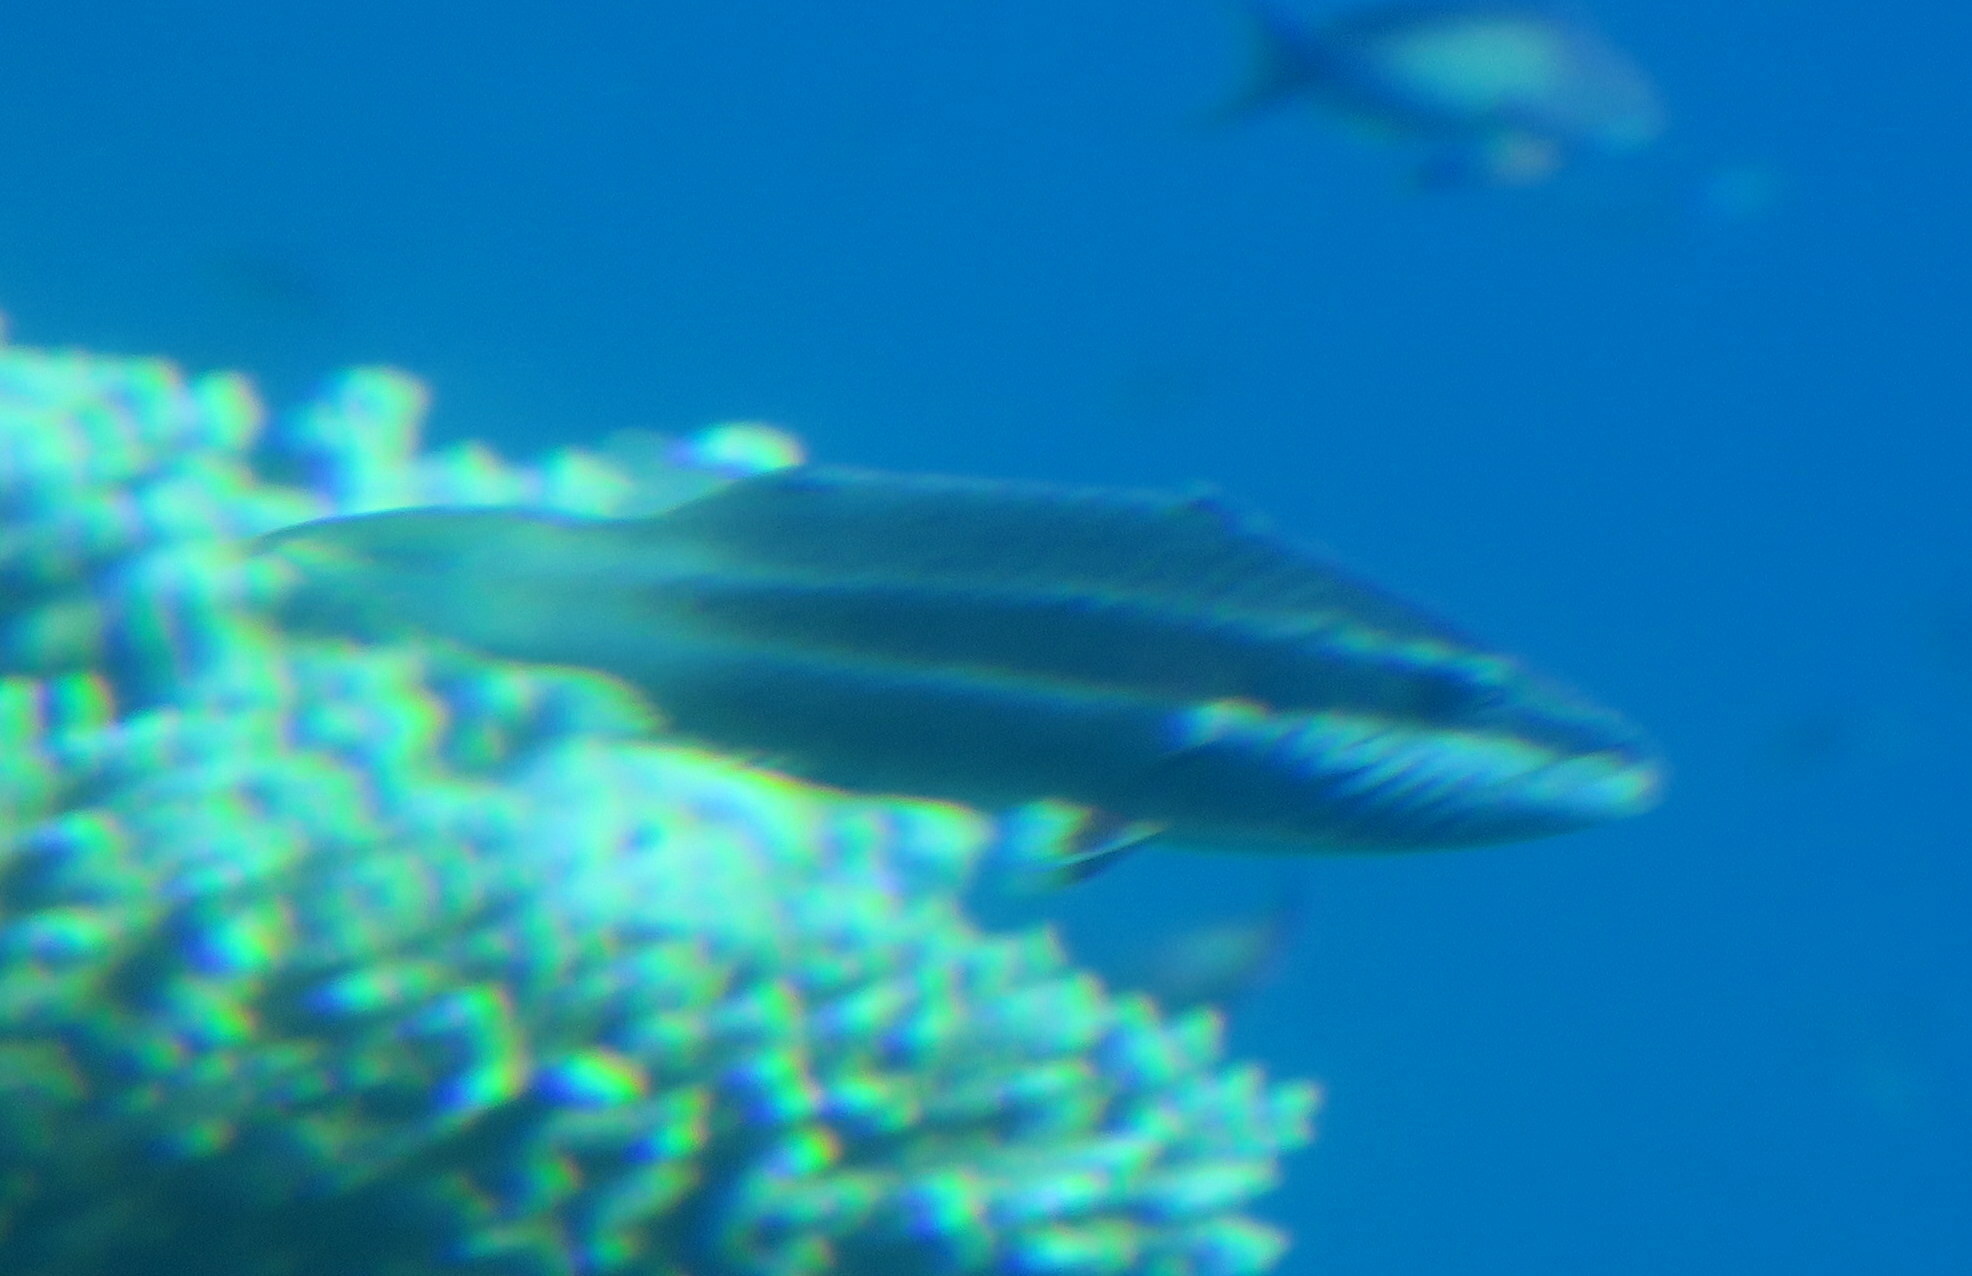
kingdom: Animalia
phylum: Chordata
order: Perciformes
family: Labridae
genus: Oxycheilinus
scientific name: Oxycheilinus digramma
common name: Bandcheek wrasse
